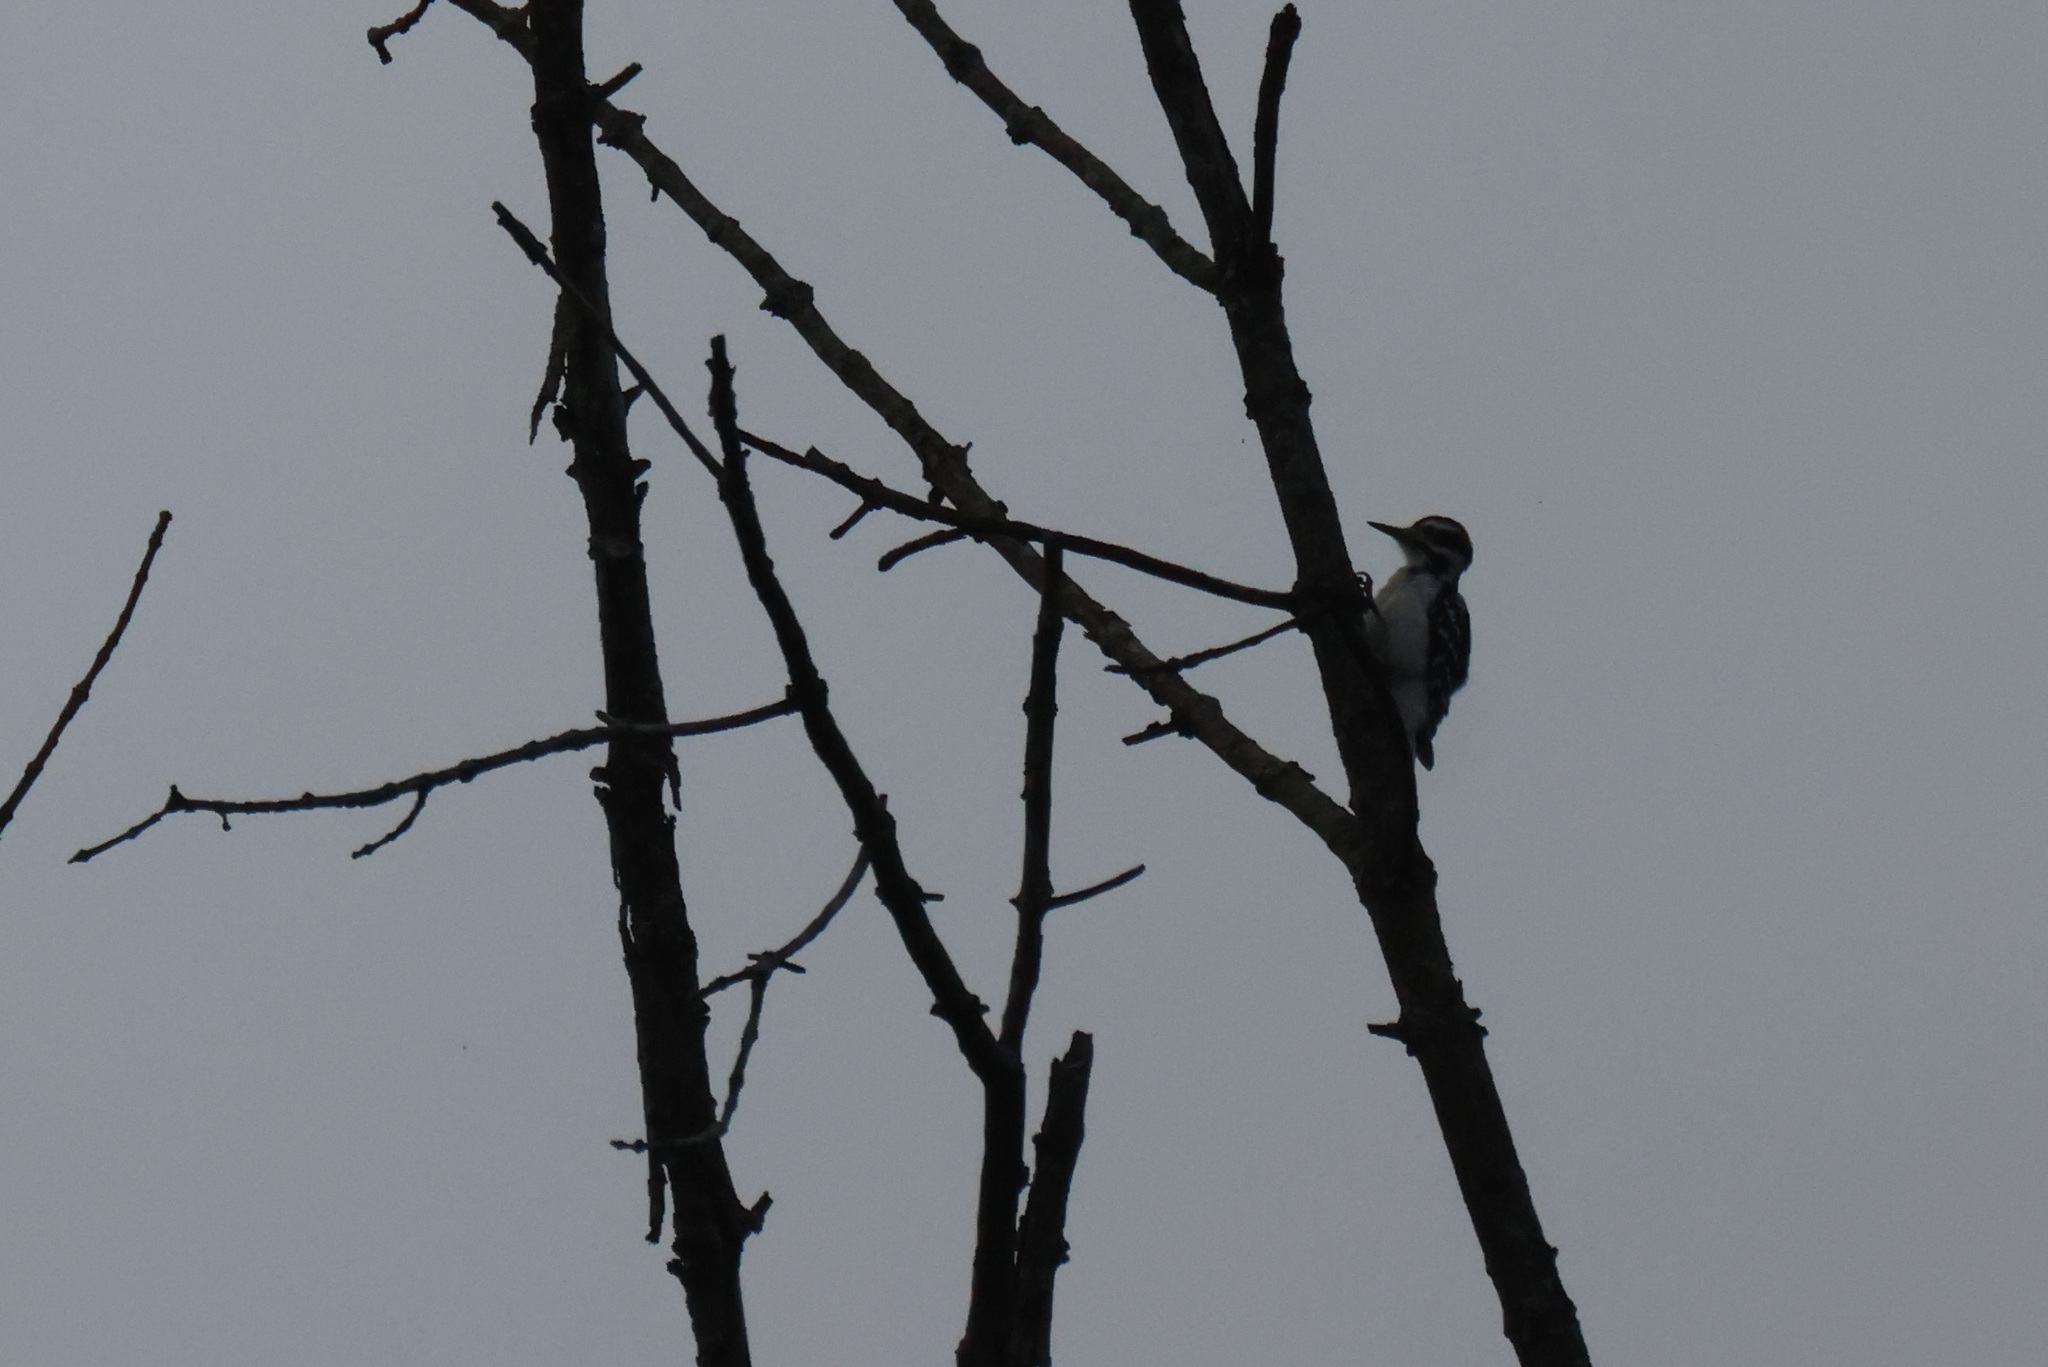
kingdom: Animalia
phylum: Chordata
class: Aves
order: Piciformes
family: Picidae
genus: Leuconotopicus
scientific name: Leuconotopicus villosus
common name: Hairy woodpecker
